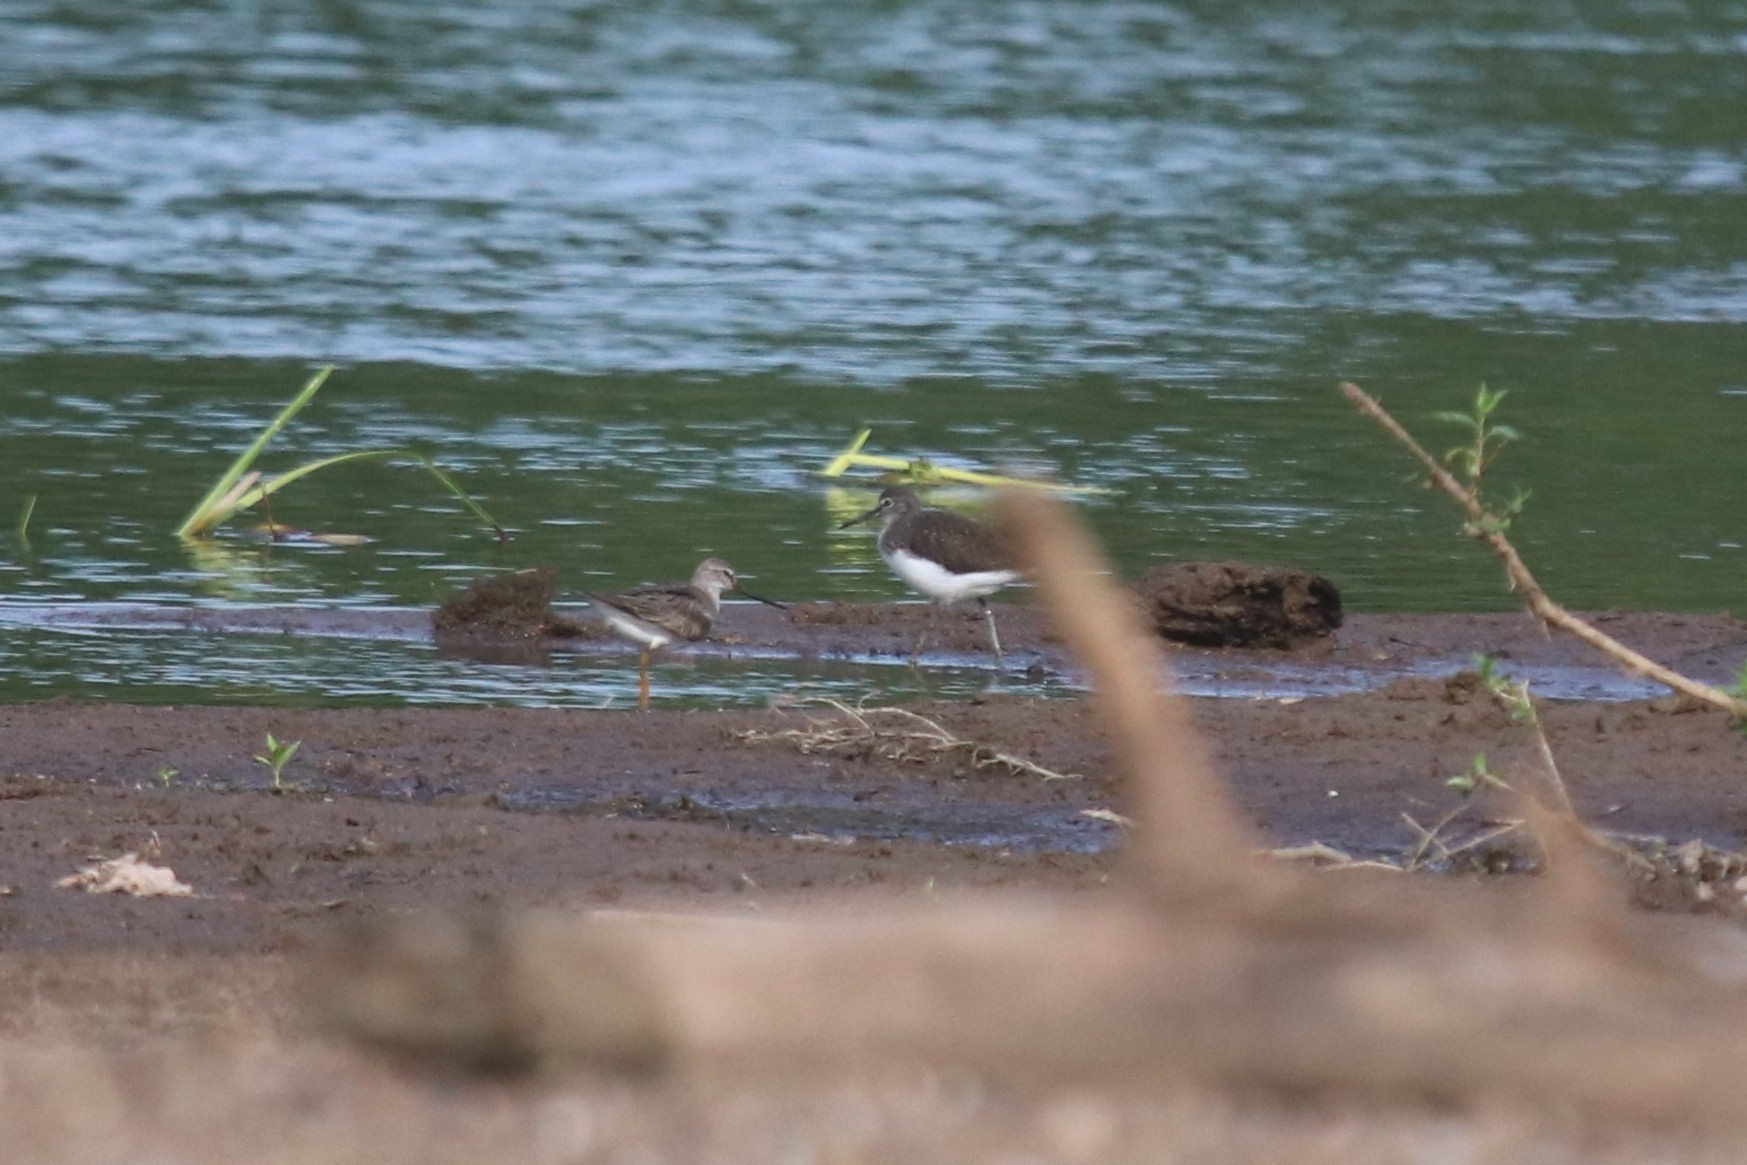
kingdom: Animalia
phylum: Chordata
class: Aves
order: Charadriiformes
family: Scolopacidae
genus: Tringa
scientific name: Tringa ochropus
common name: Green sandpiper
